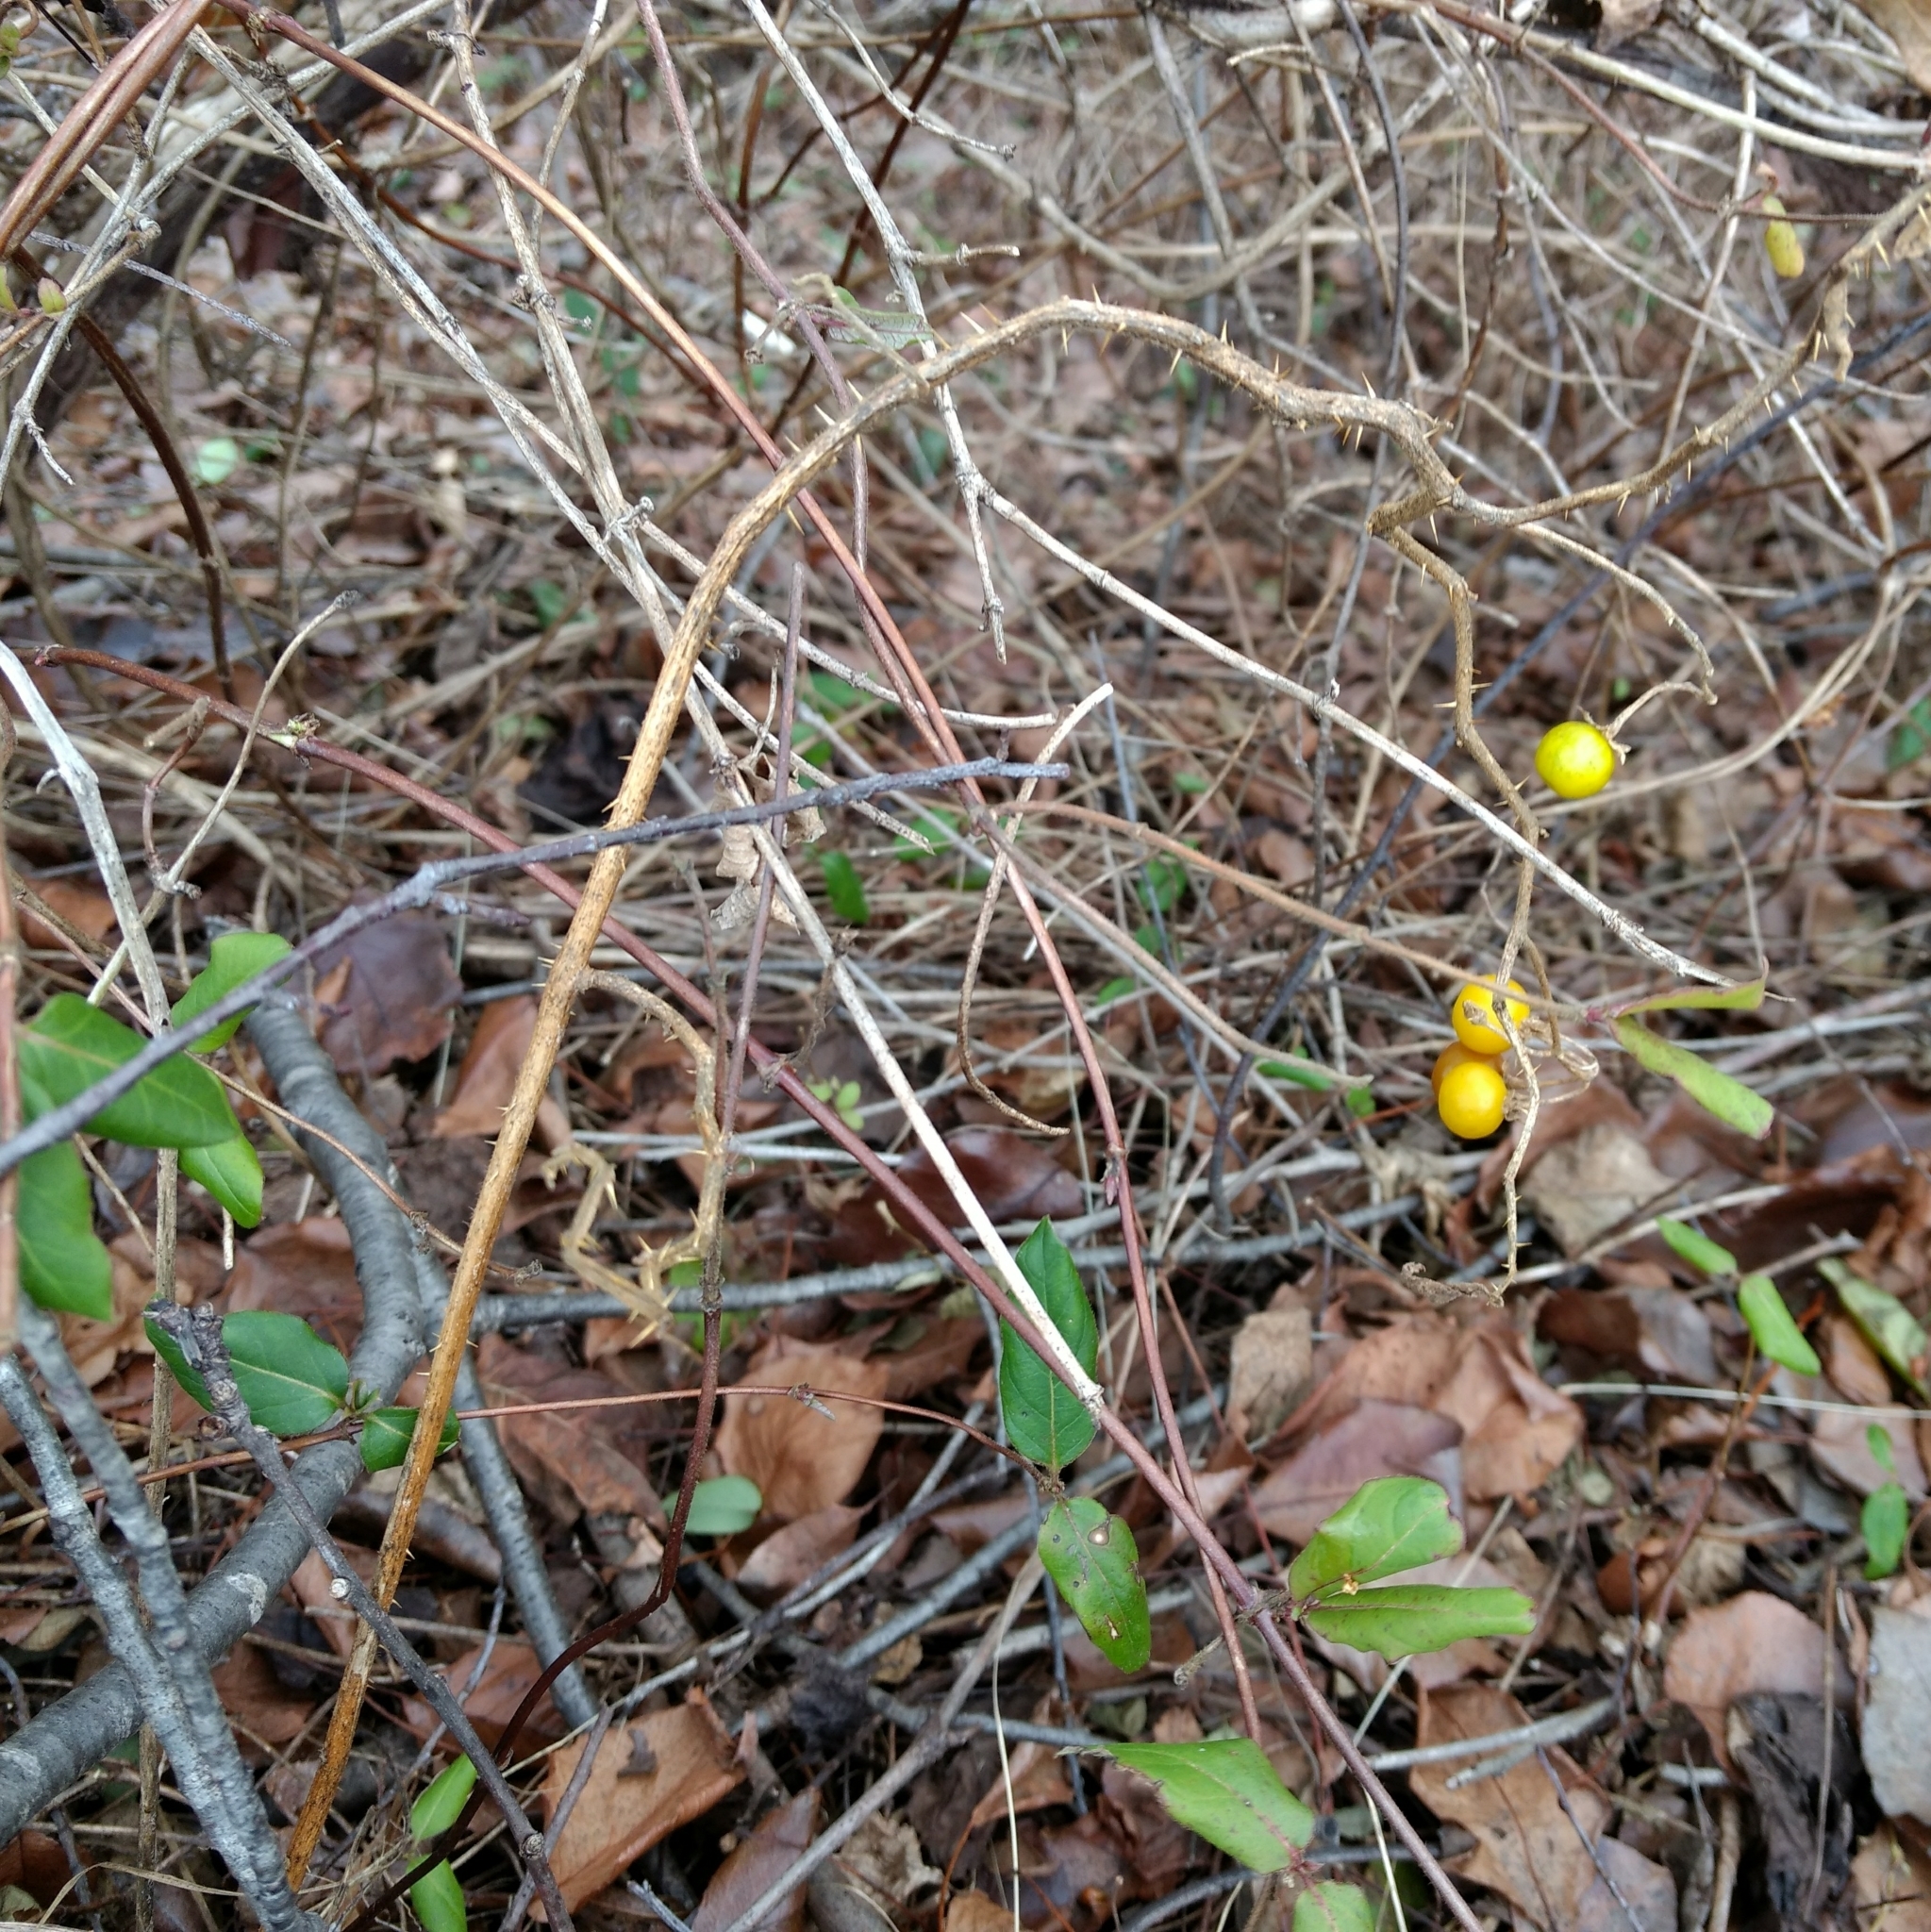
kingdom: Plantae
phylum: Tracheophyta
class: Magnoliopsida
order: Solanales
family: Solanaceae
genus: Solanum
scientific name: Solanum carolinense
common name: Horse-nettle
